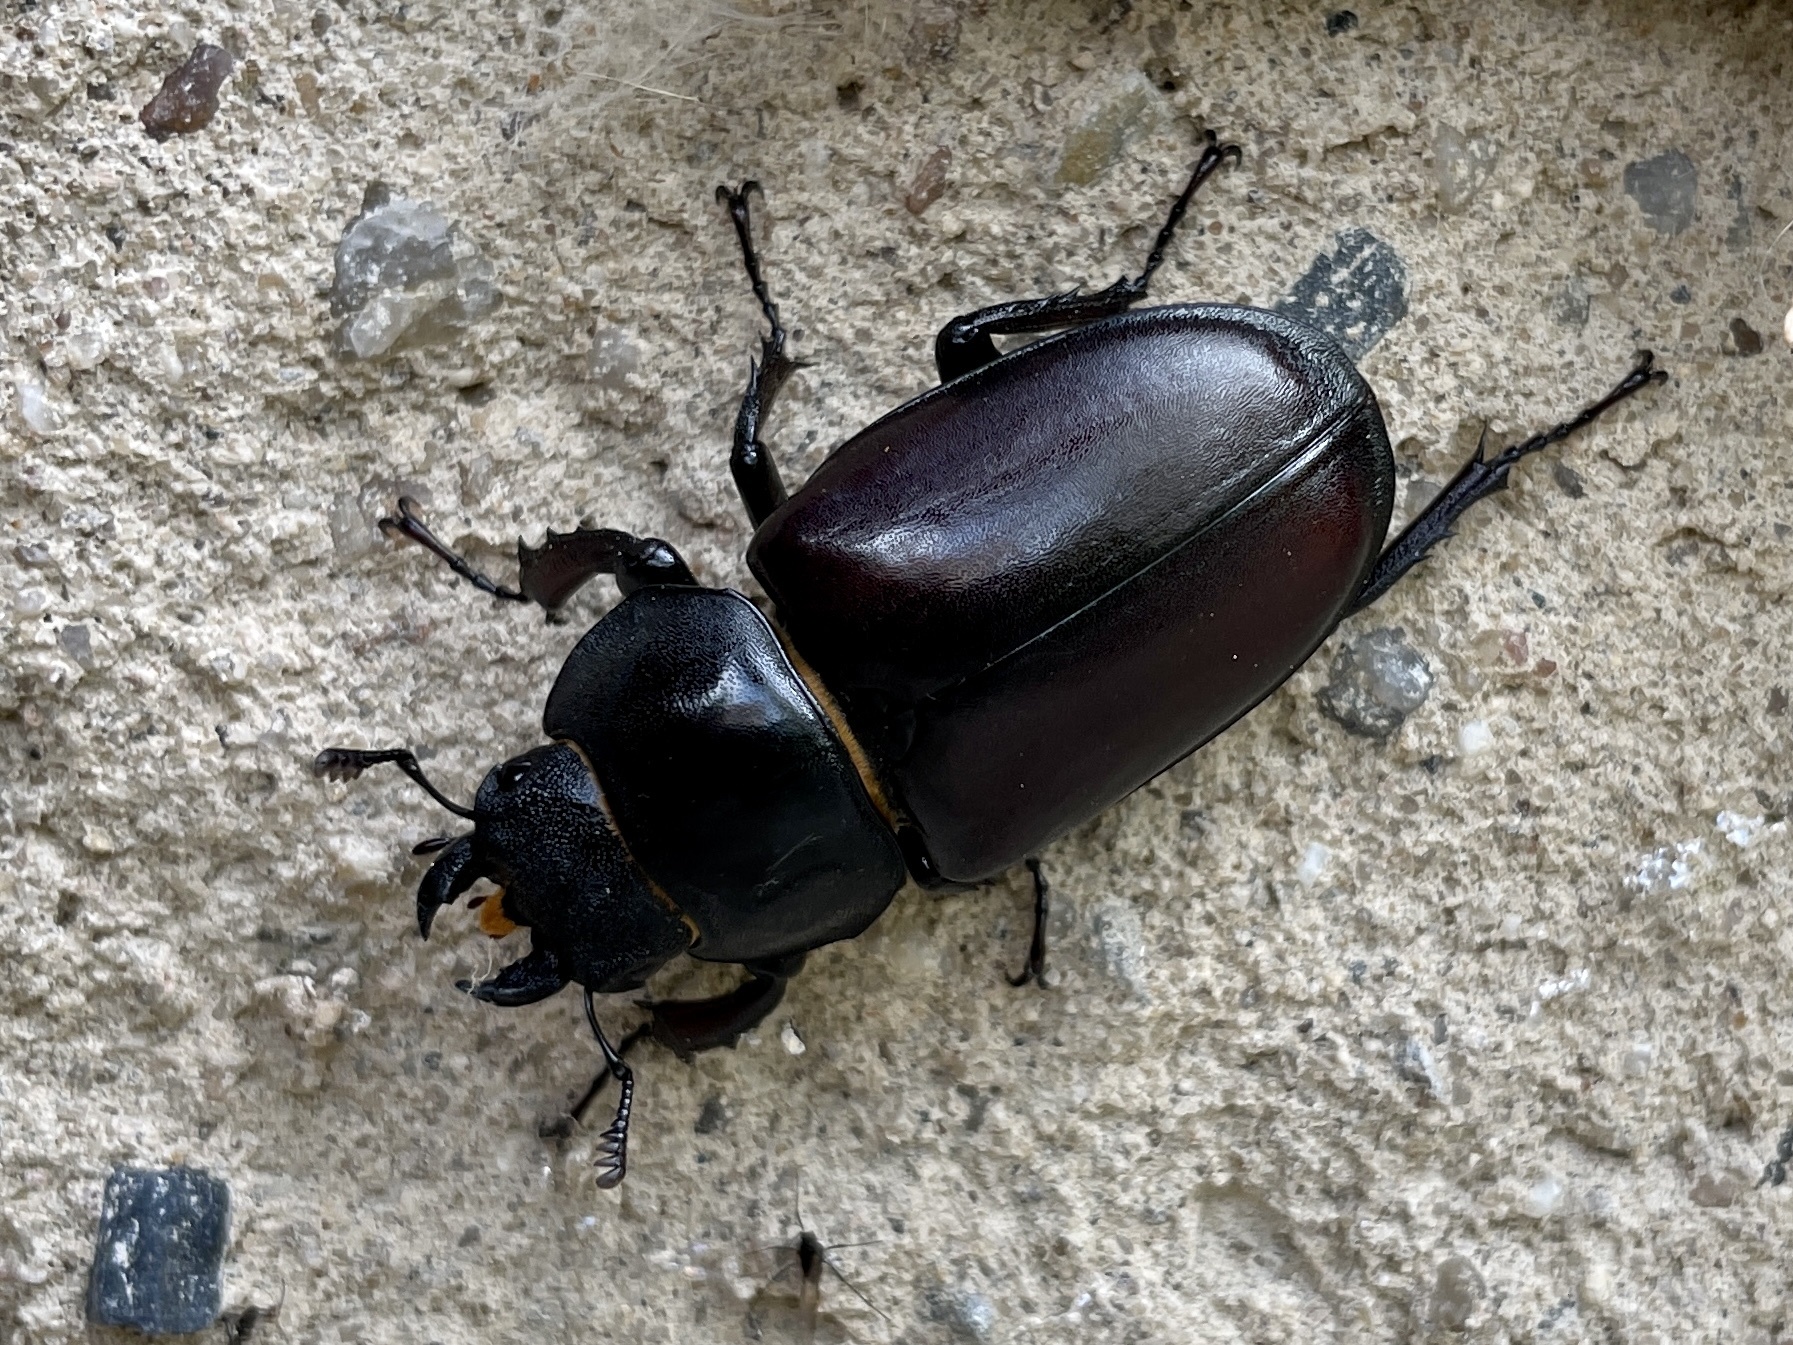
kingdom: Animalia
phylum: Arthropoda
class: Insecta
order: Coleoptera
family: Lucanidae
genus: Lucanus
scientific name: Lucanus cervus
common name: Stag beetle
